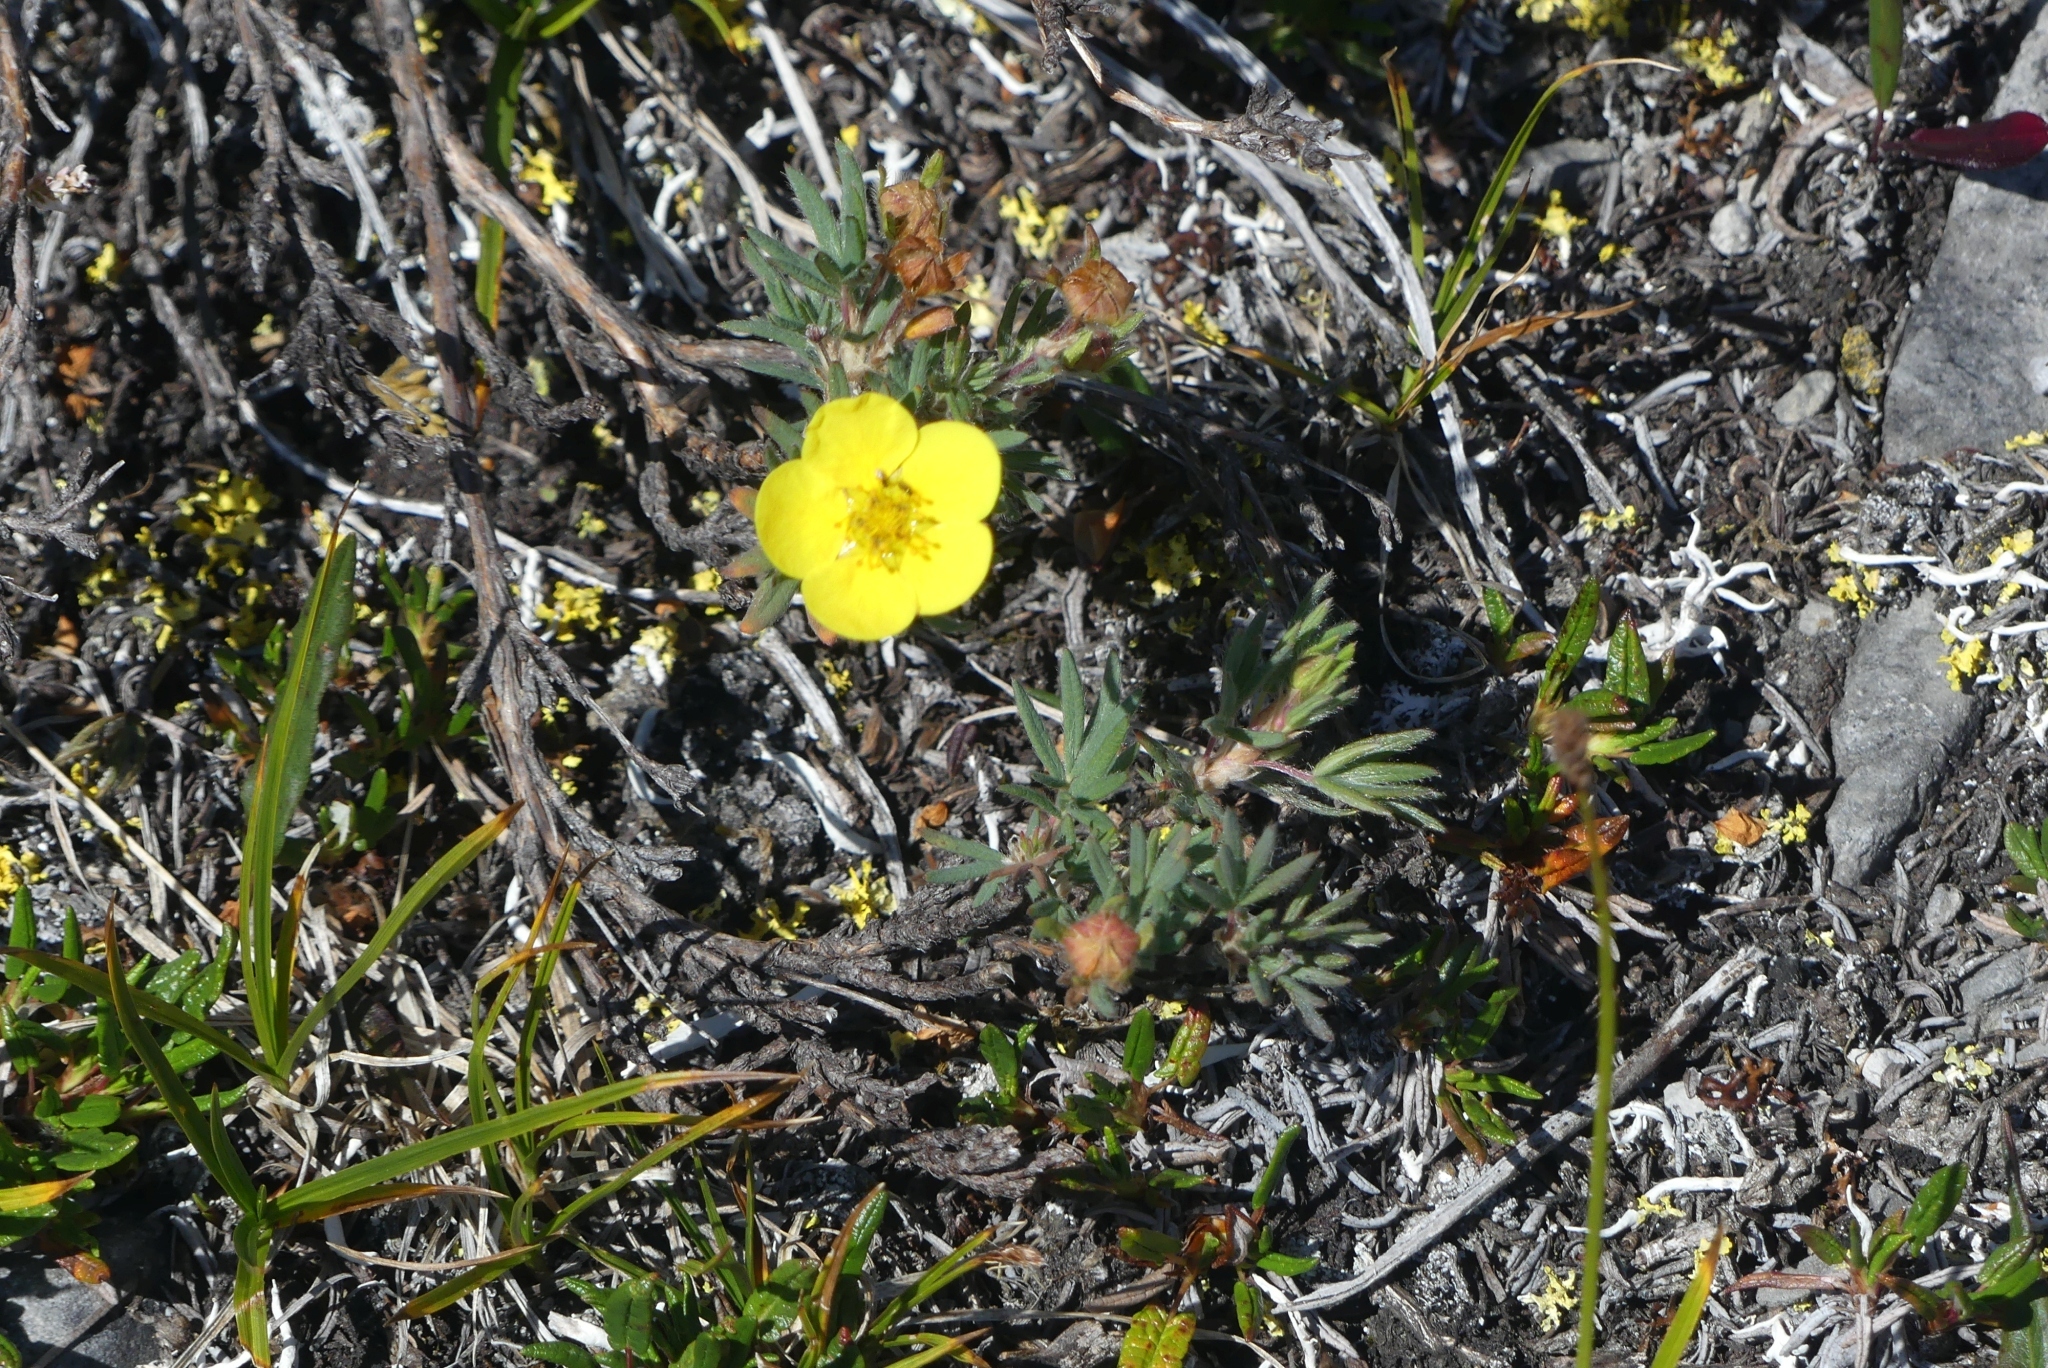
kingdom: Plantae
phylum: Tracheophyta
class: Magnoliopsida
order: Rosales
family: Rosaceae
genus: Dasiphora
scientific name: Dasiphora fruticosa
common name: Shrubby cinquefoil
